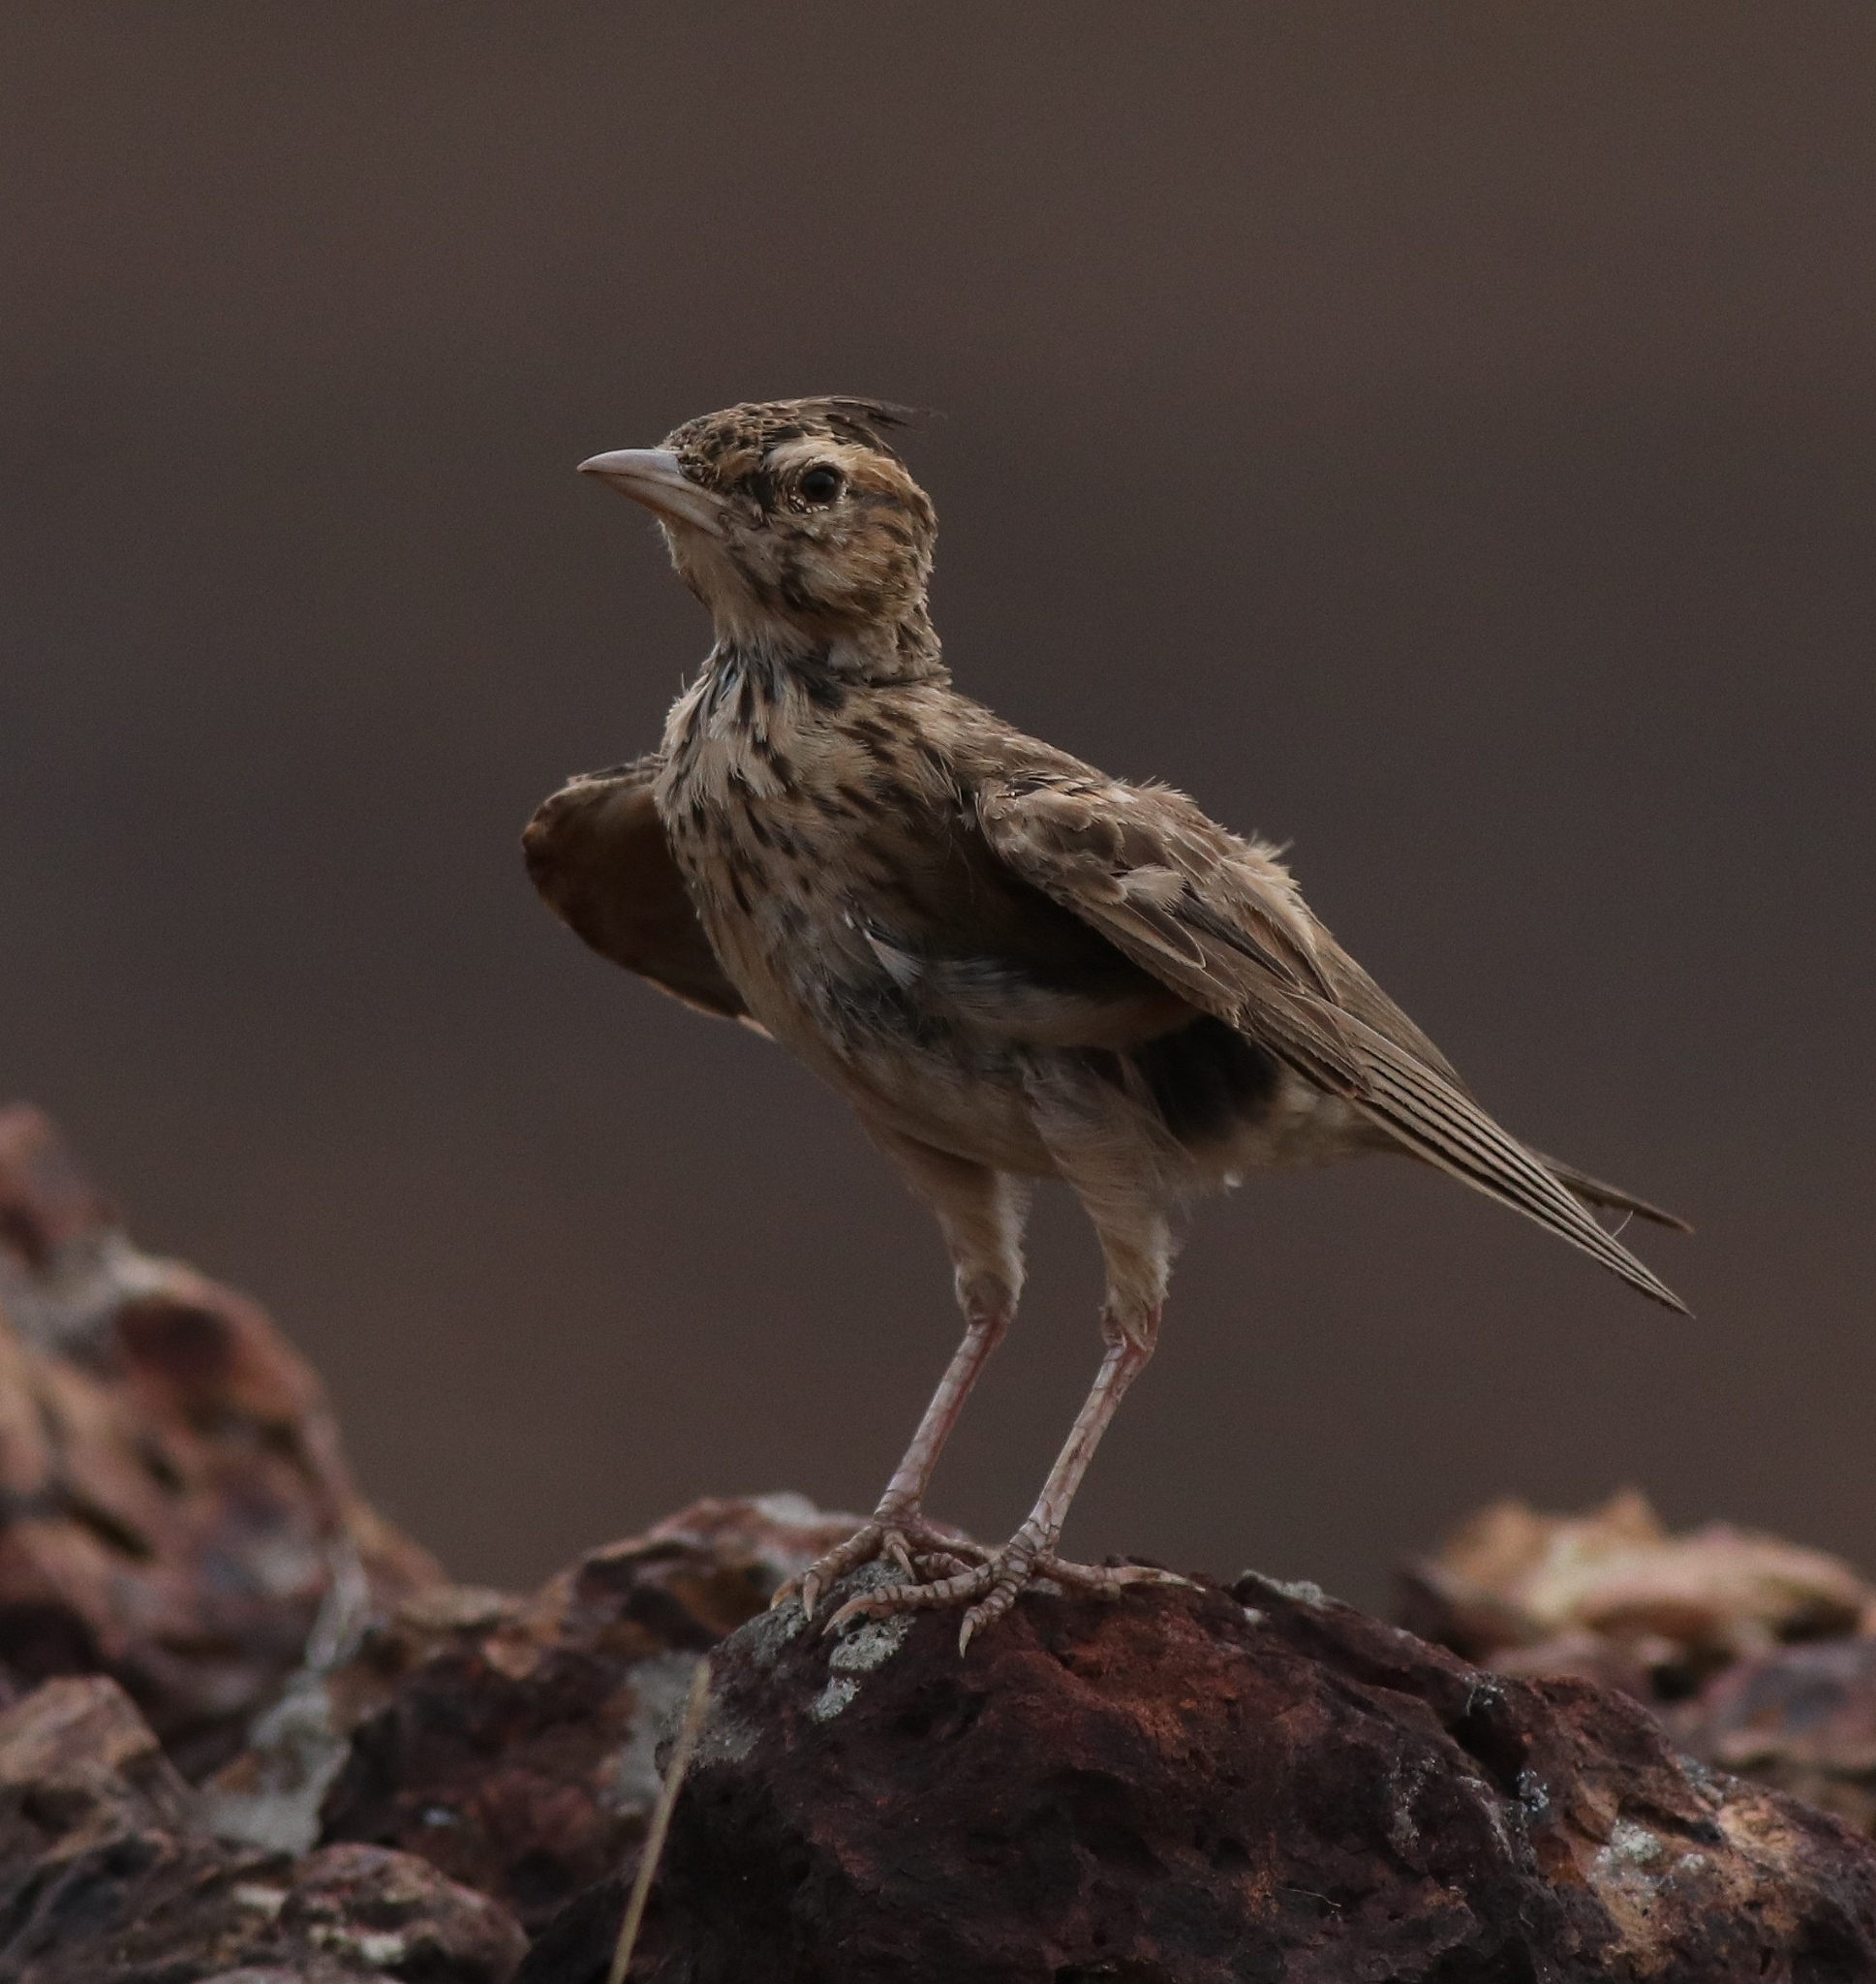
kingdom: Animalia
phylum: Chordata
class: Aves
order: Passeriformes
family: Alaudidae
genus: Galerida
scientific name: Galerida malabarica
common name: Malabar lark
